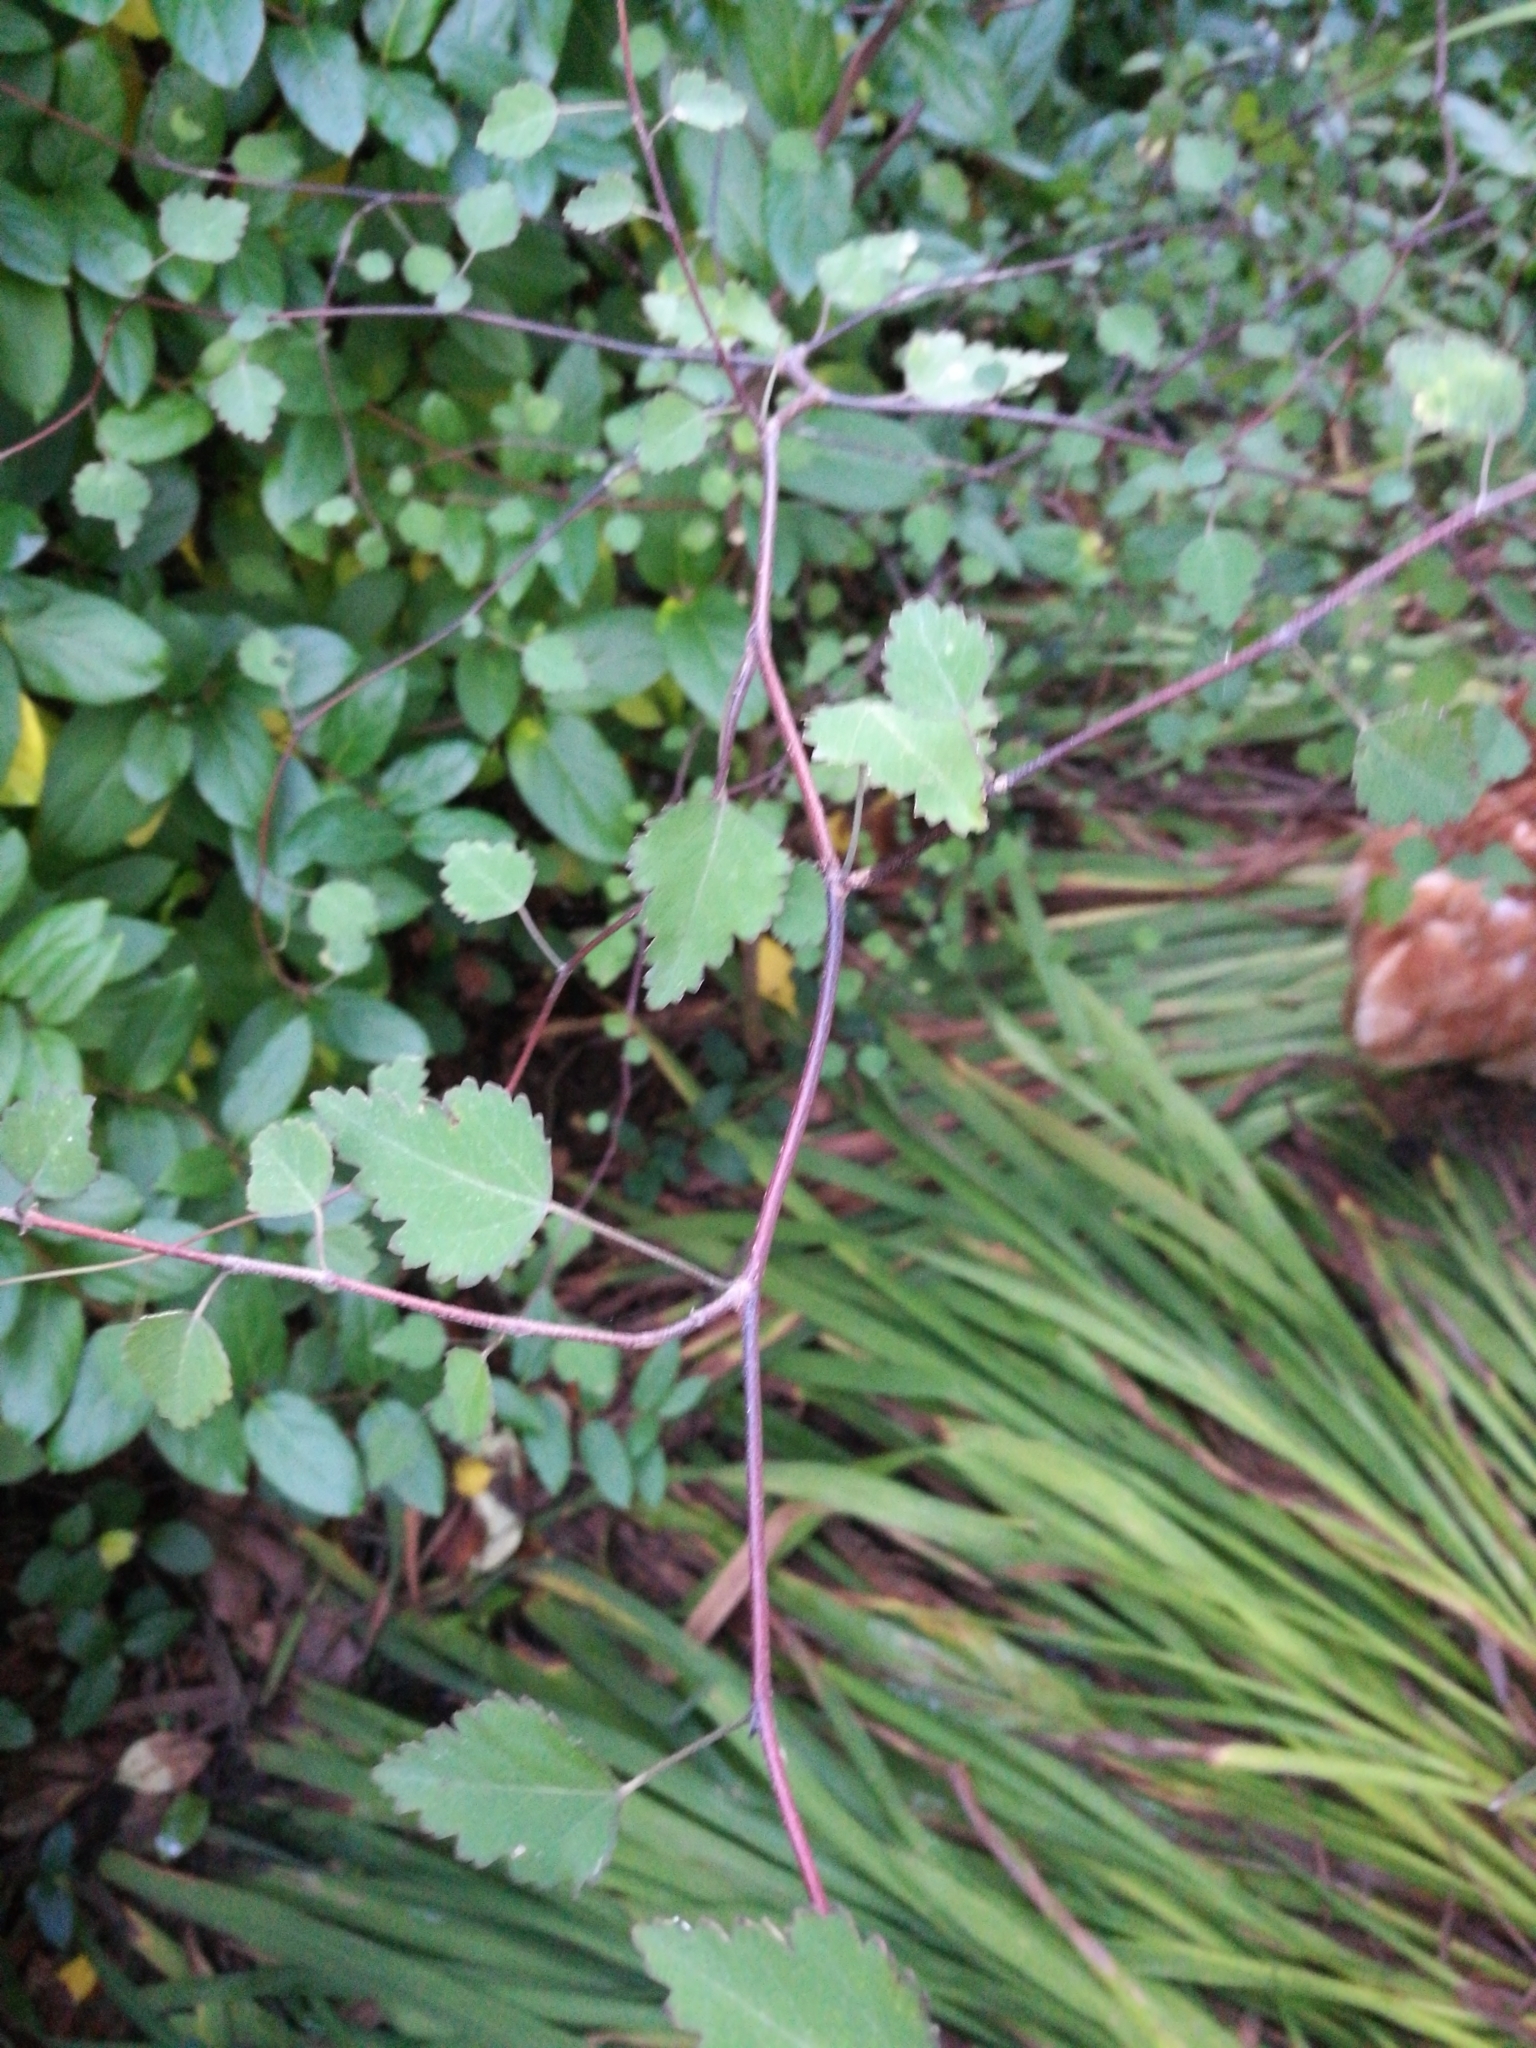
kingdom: Plantae
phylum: Tracheophyta
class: Magnoliopsida
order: Malvales
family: Malvaceae
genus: Plagianthus
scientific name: Plagianthus regius
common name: Manatu
